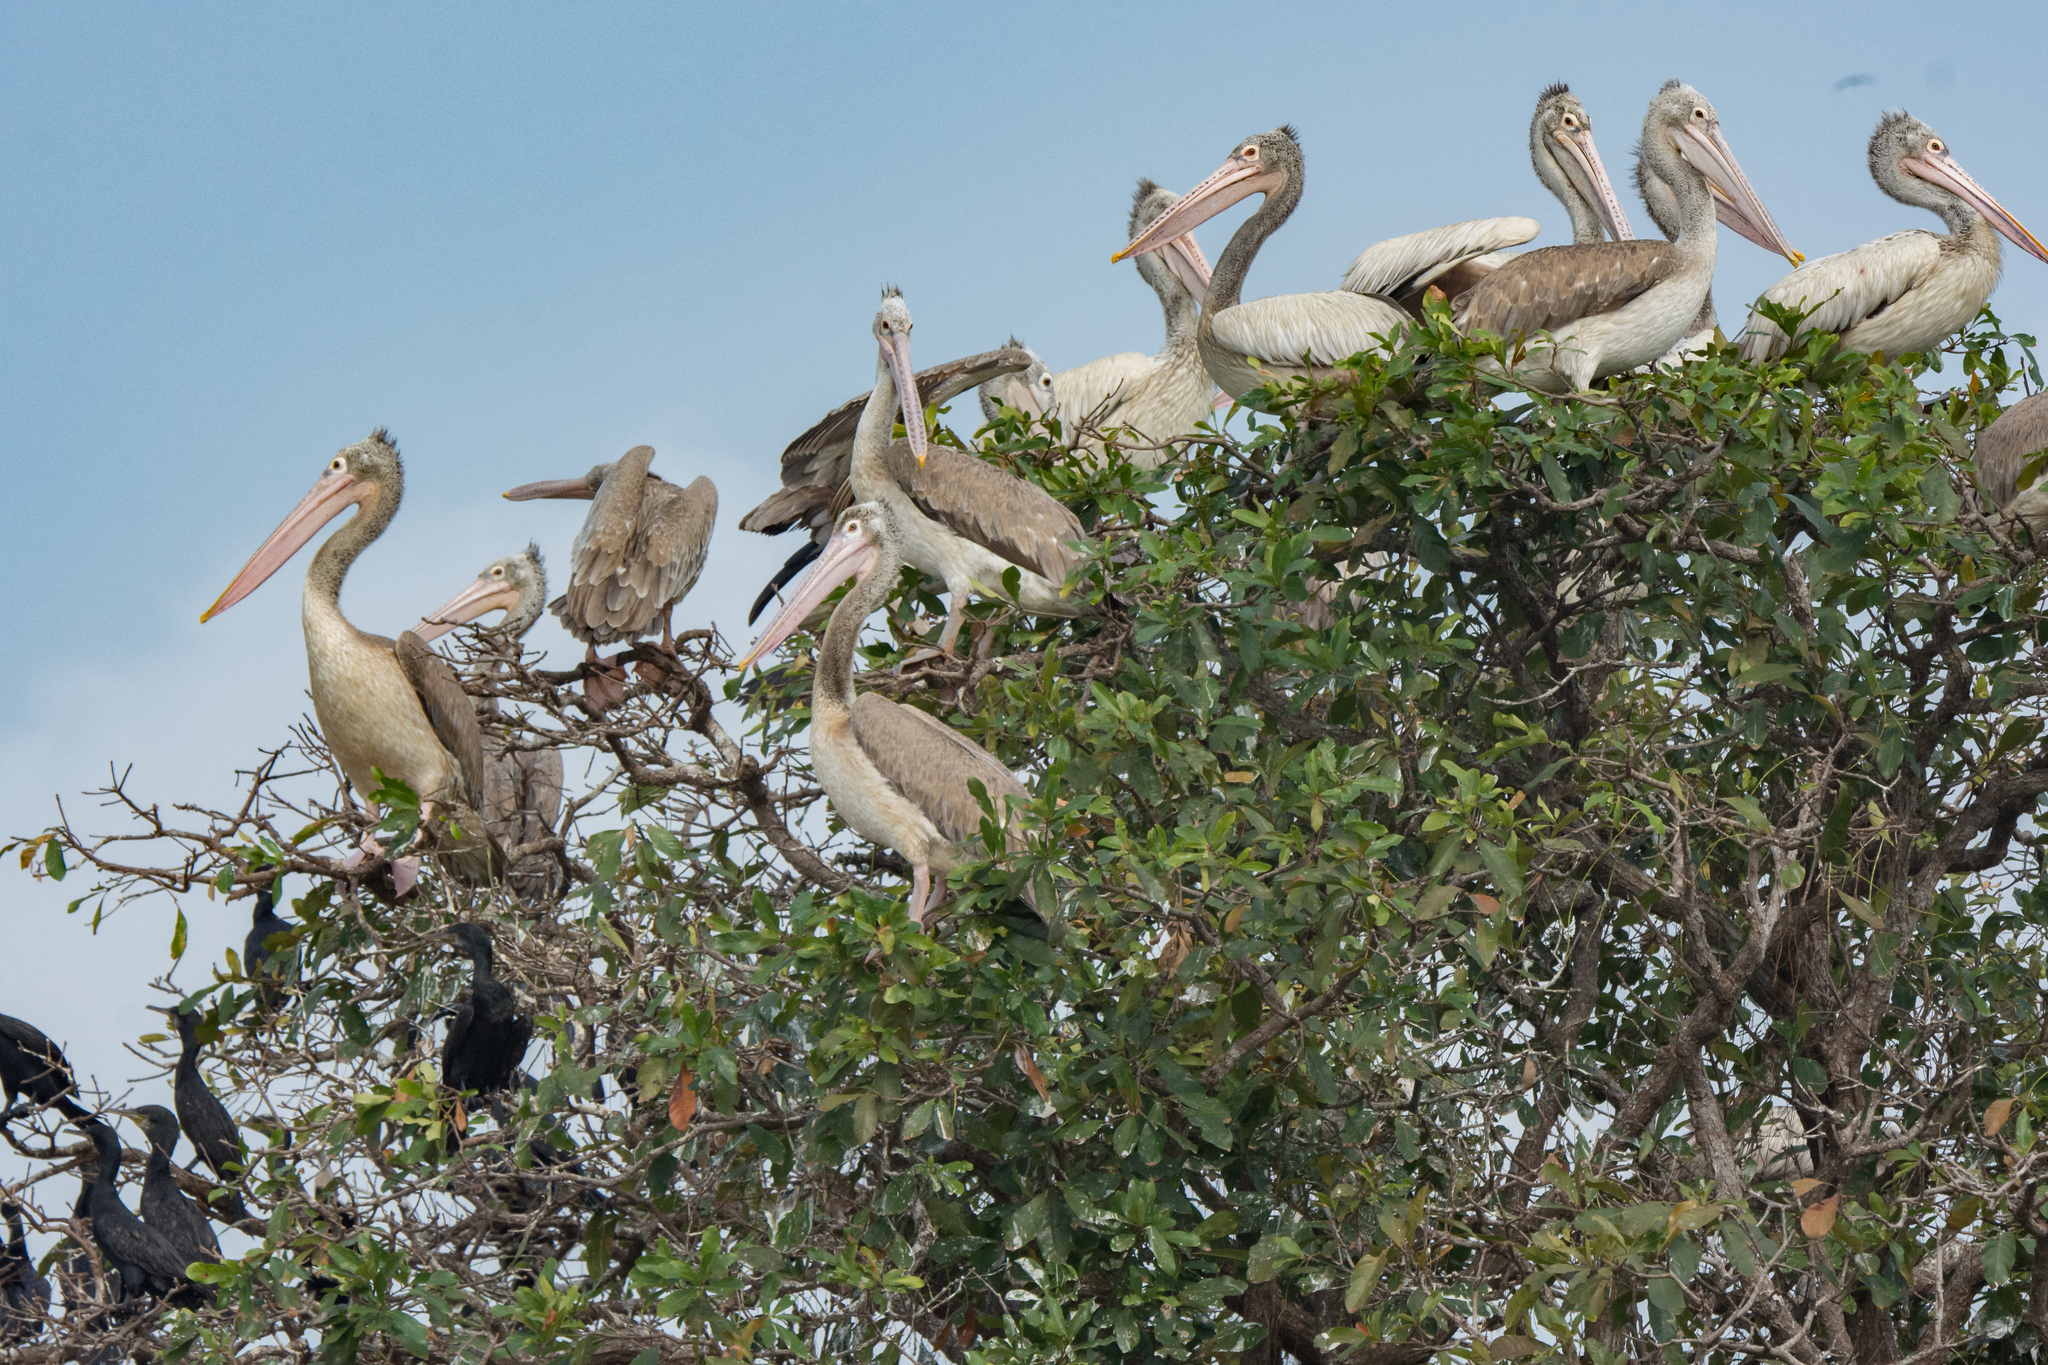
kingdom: Animalia
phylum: Chordata
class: Aves
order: Pelecaniformes
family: Pelecanidae
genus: Pelecanus
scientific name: Pelecanus philippensis
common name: Spot-billed pelican
